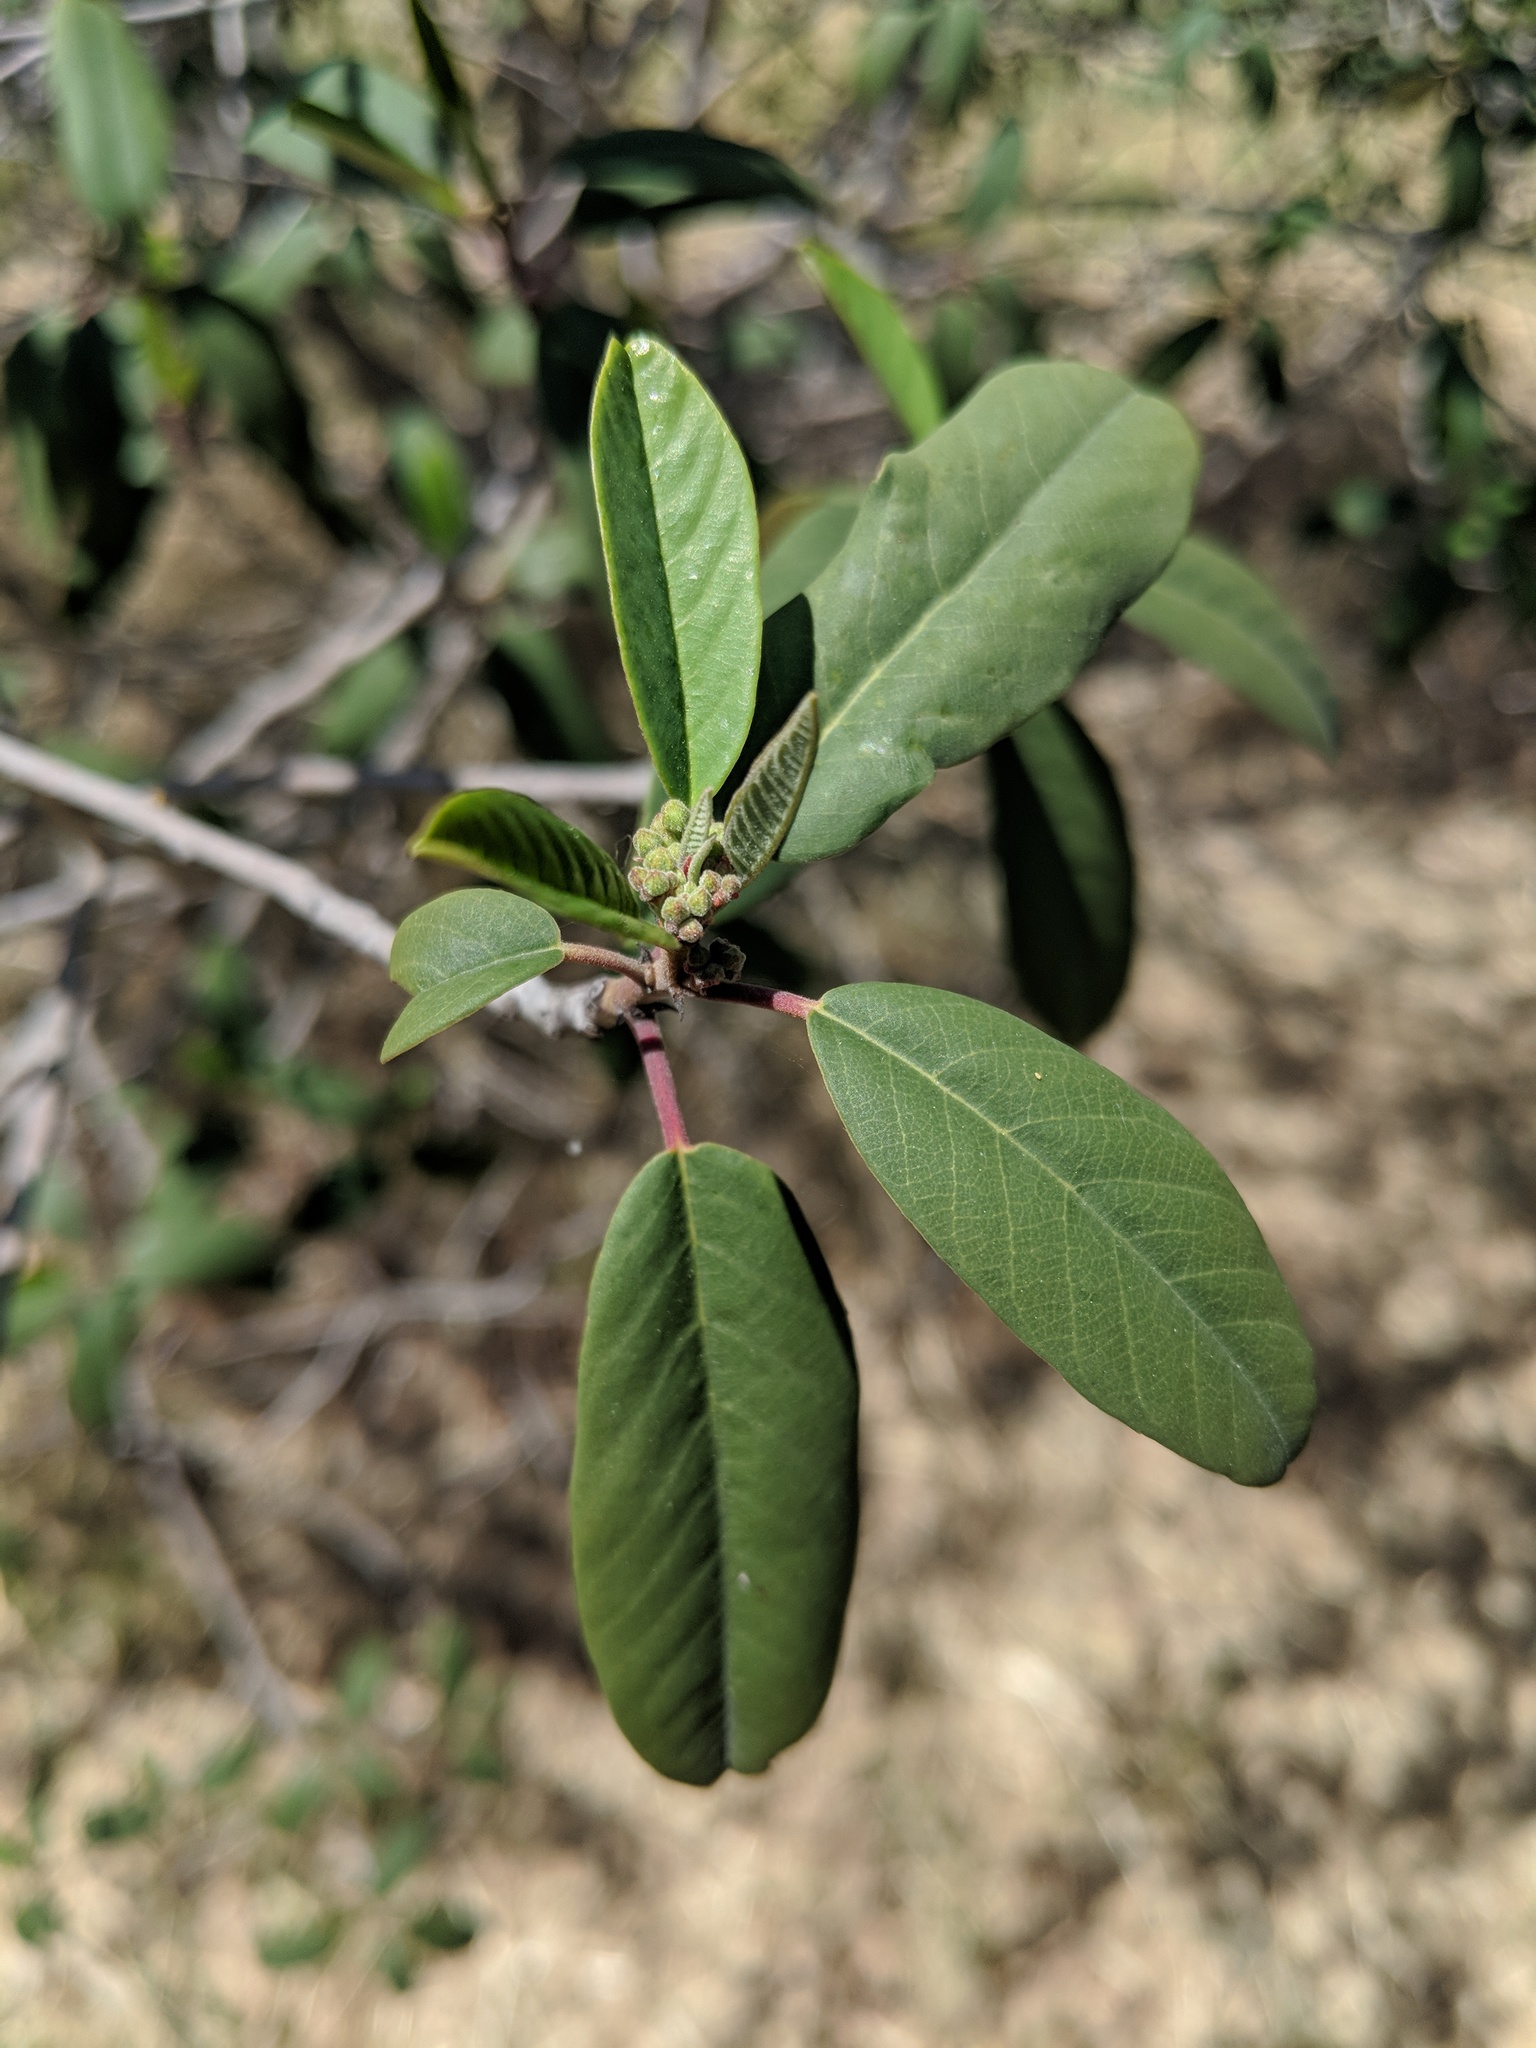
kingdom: Plantae
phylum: Tracheophyta
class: Magnoliopsida
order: Rosales
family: Rhamnaceae
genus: Frangula
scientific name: Frangula californica
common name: California buckthorn
